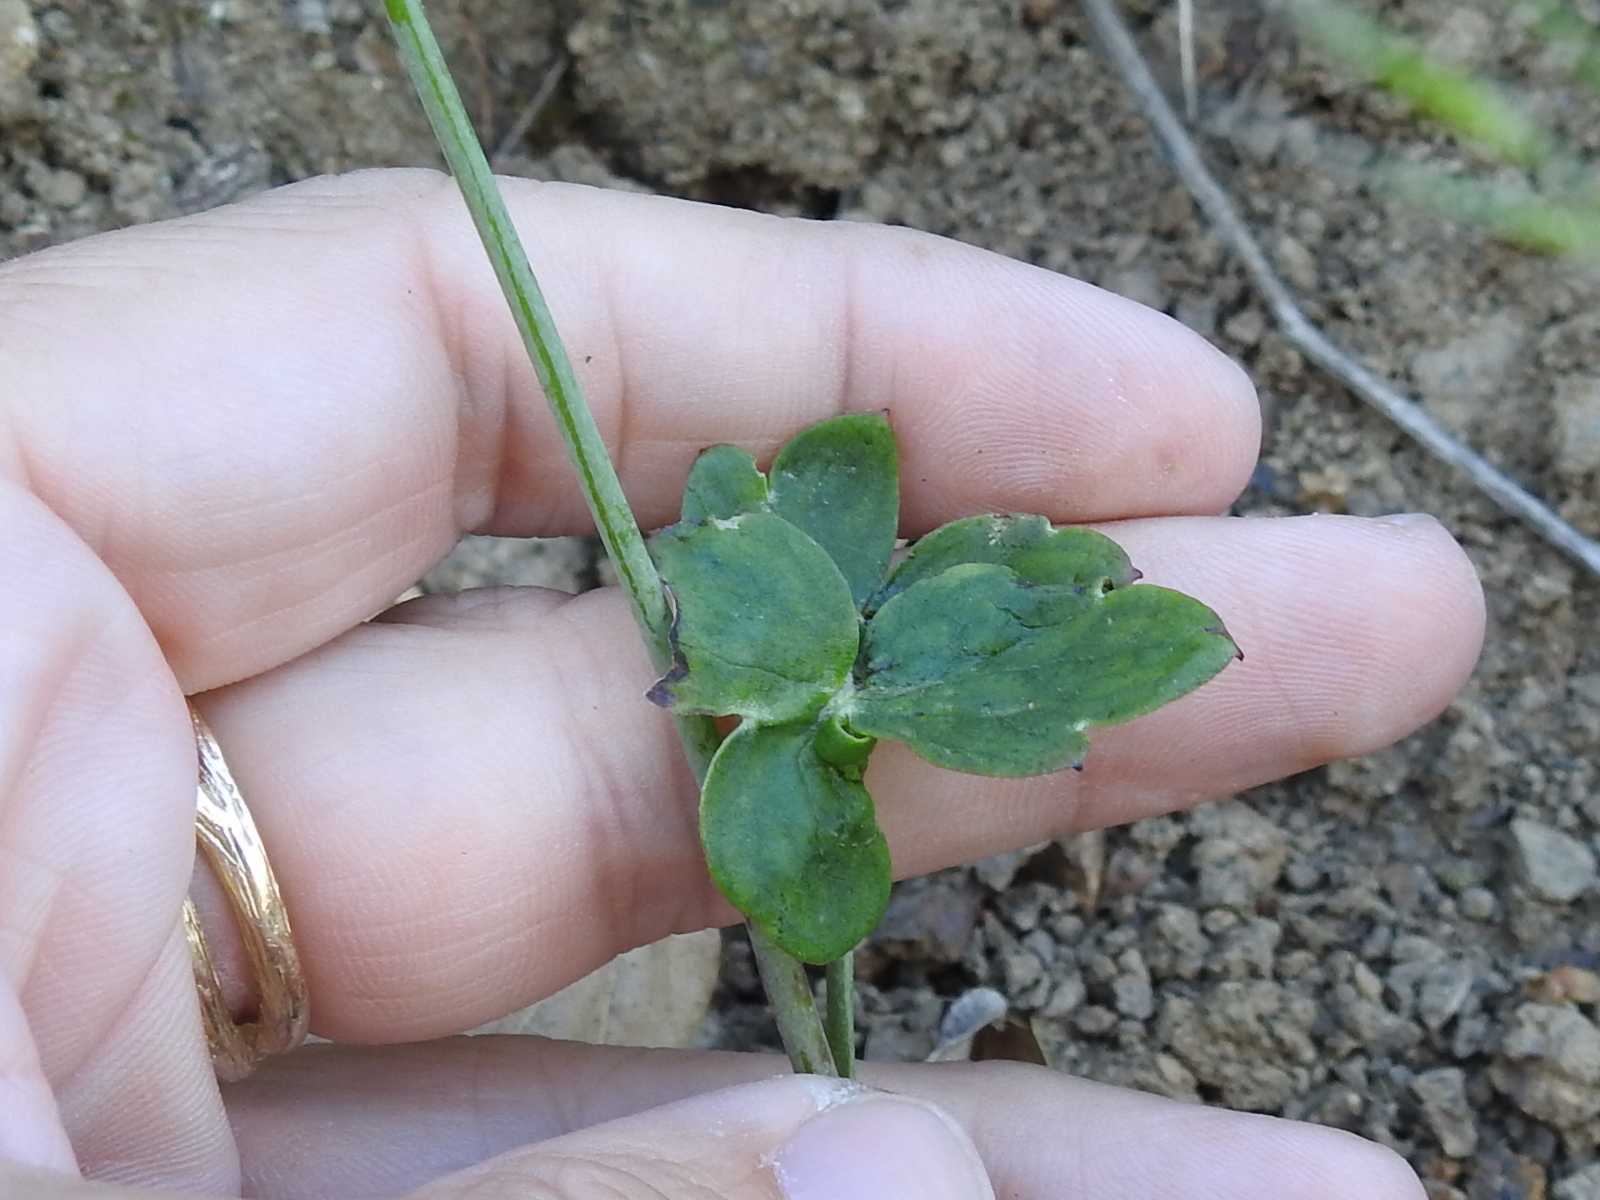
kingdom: Plantae
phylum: Tracheophyta
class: Magnoliopsida
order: Ranunculales
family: Ranunculaceae
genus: Delphinium
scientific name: Delphinium nudicaule
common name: Red larkspur
